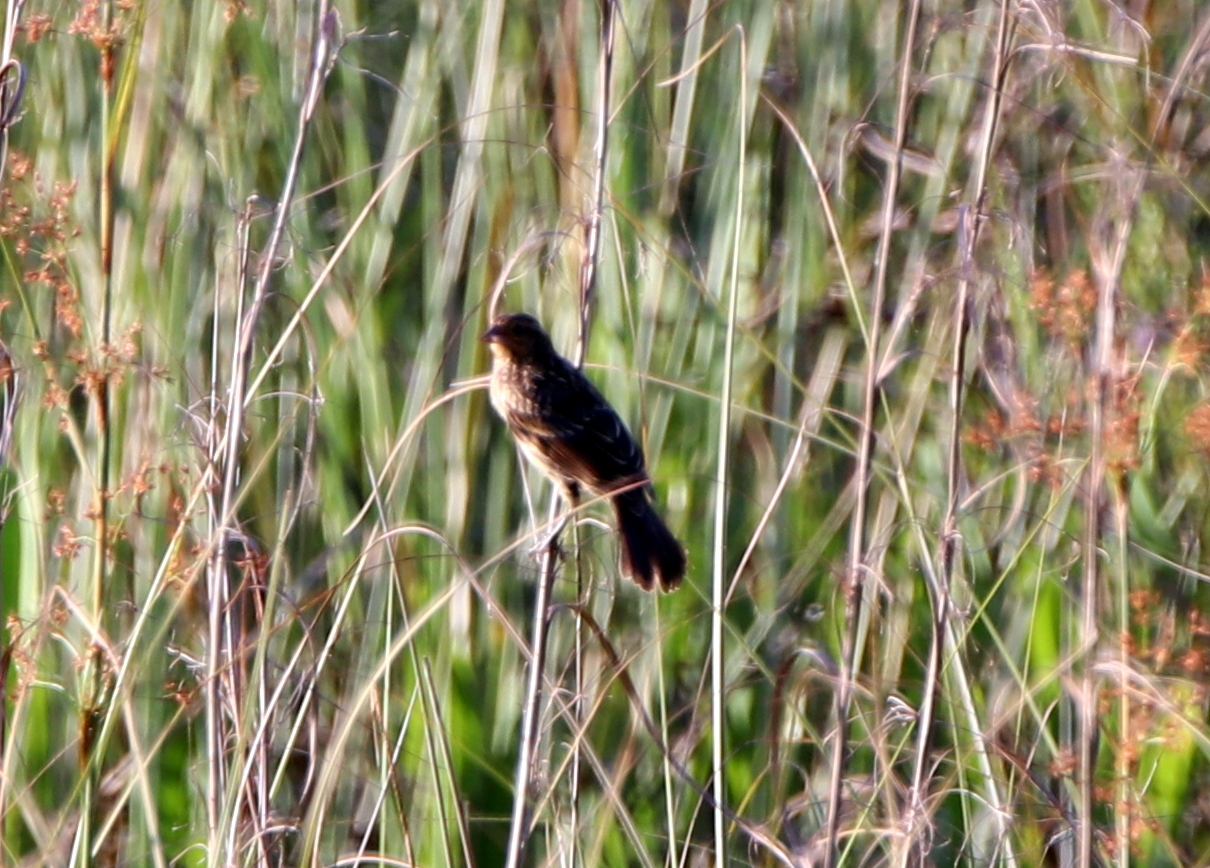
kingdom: Animalia
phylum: Chordata
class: Aves
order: Passeriformes
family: Icteridae
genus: Agelaius
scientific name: Agelaius phoeniceus
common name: Red-winged blackbird
